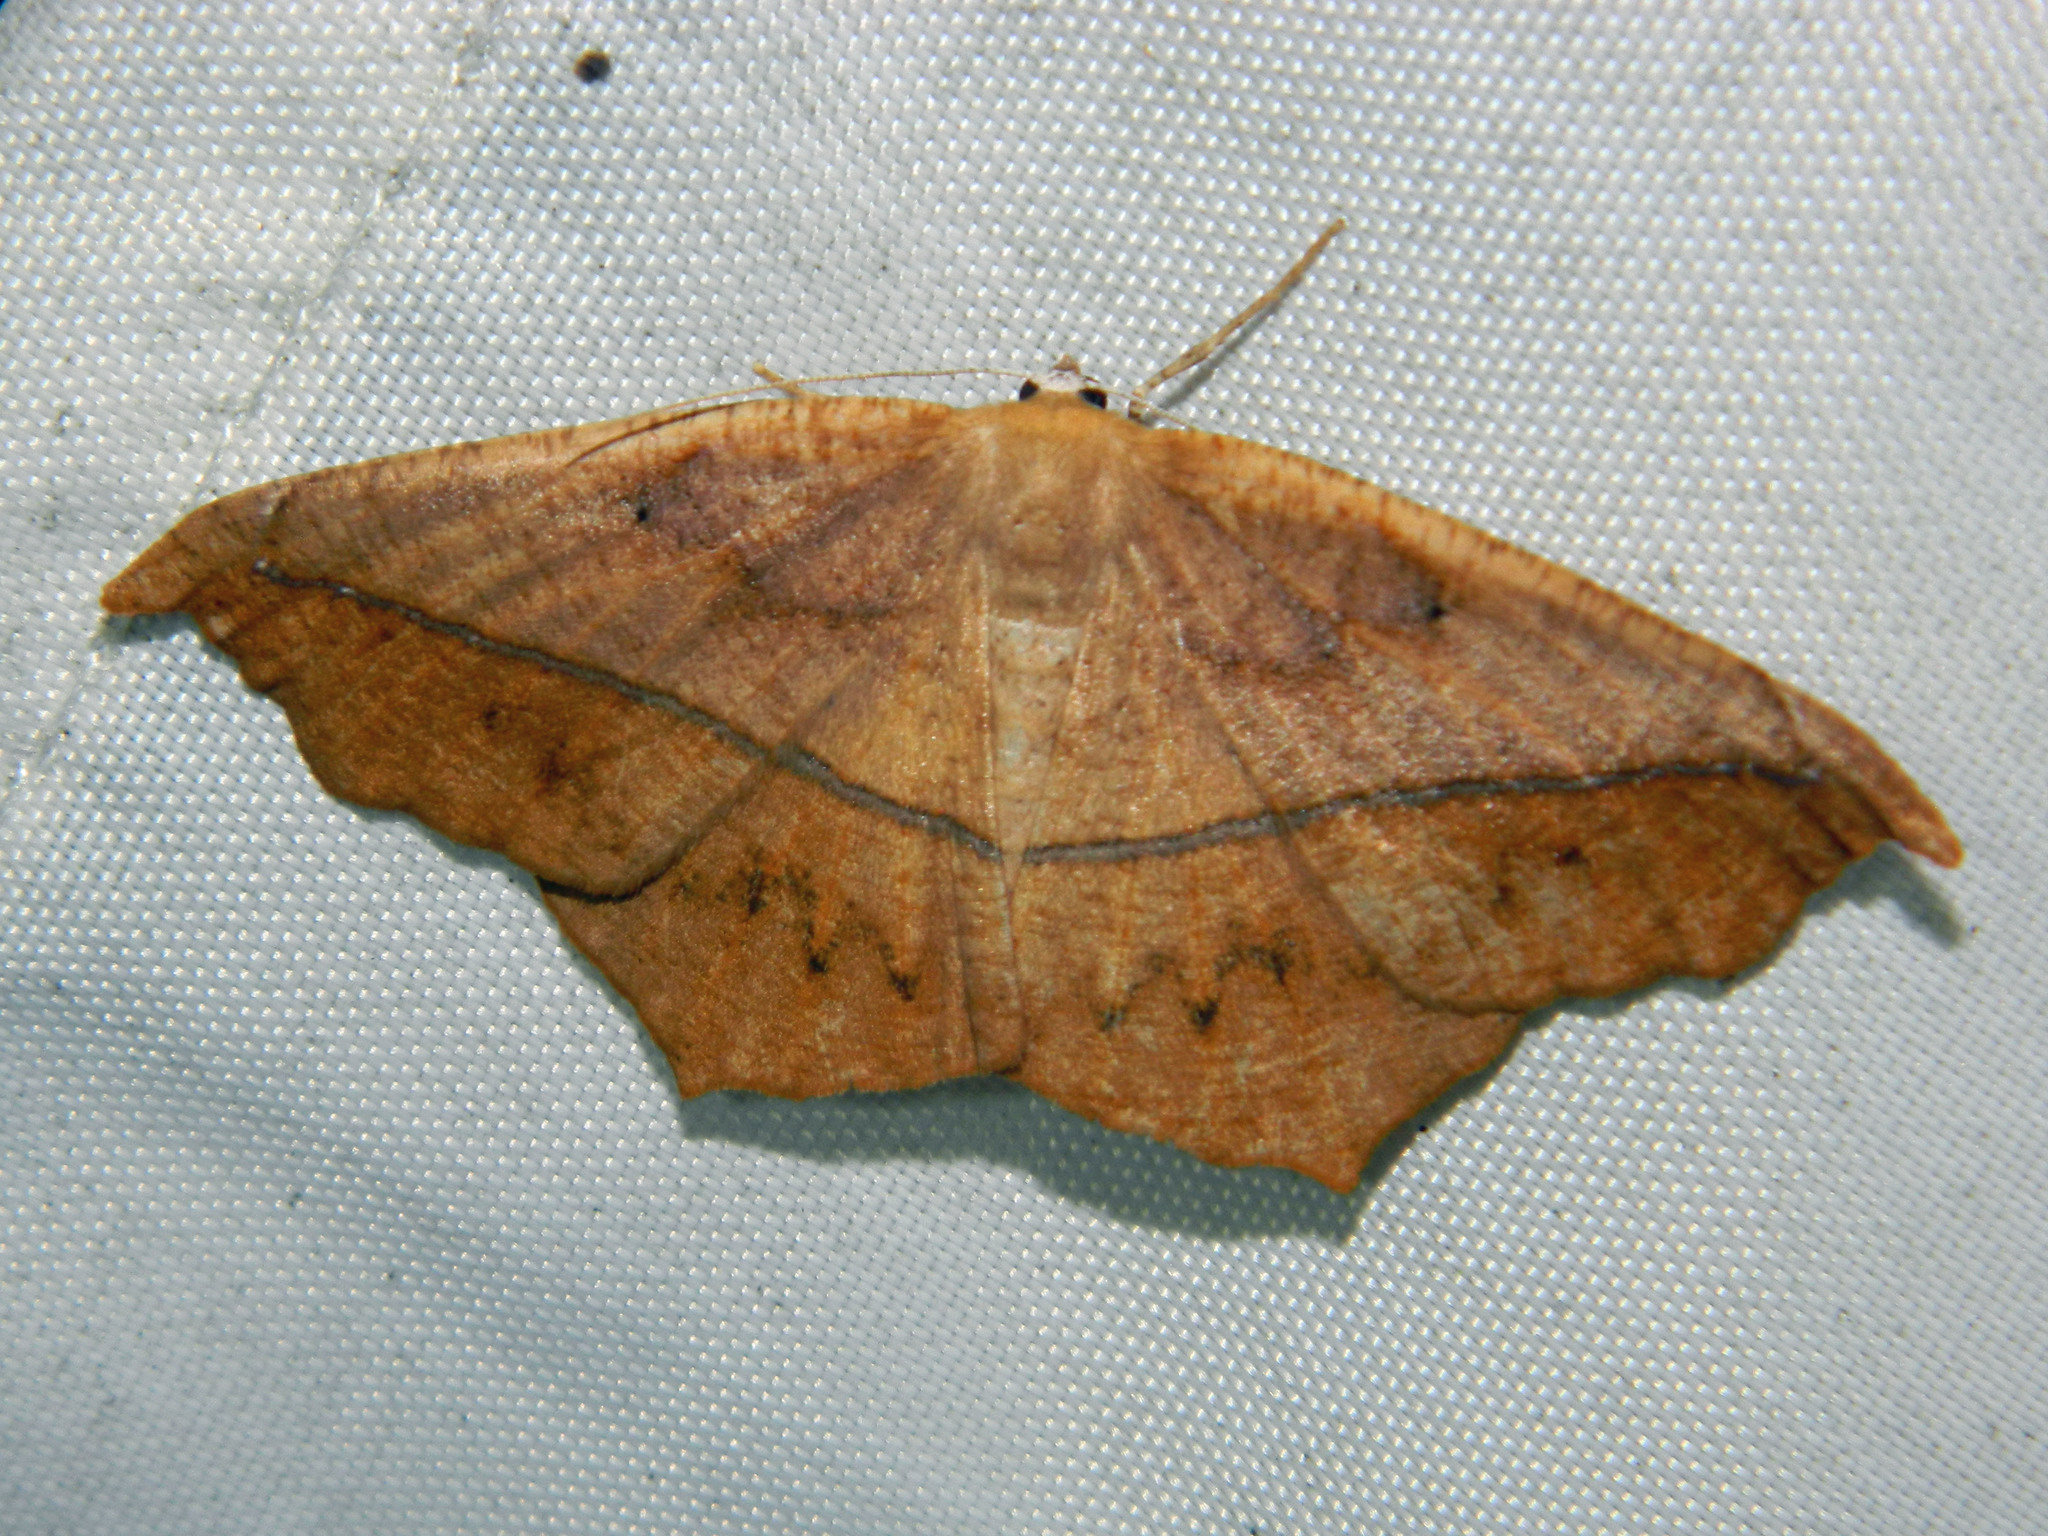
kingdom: Animalia
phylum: Arthropoda
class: Insecta
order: Lepidoptera
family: Geometridae
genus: Prochoerodes
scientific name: Prochoerodes lineola
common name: Large maple spanworm
